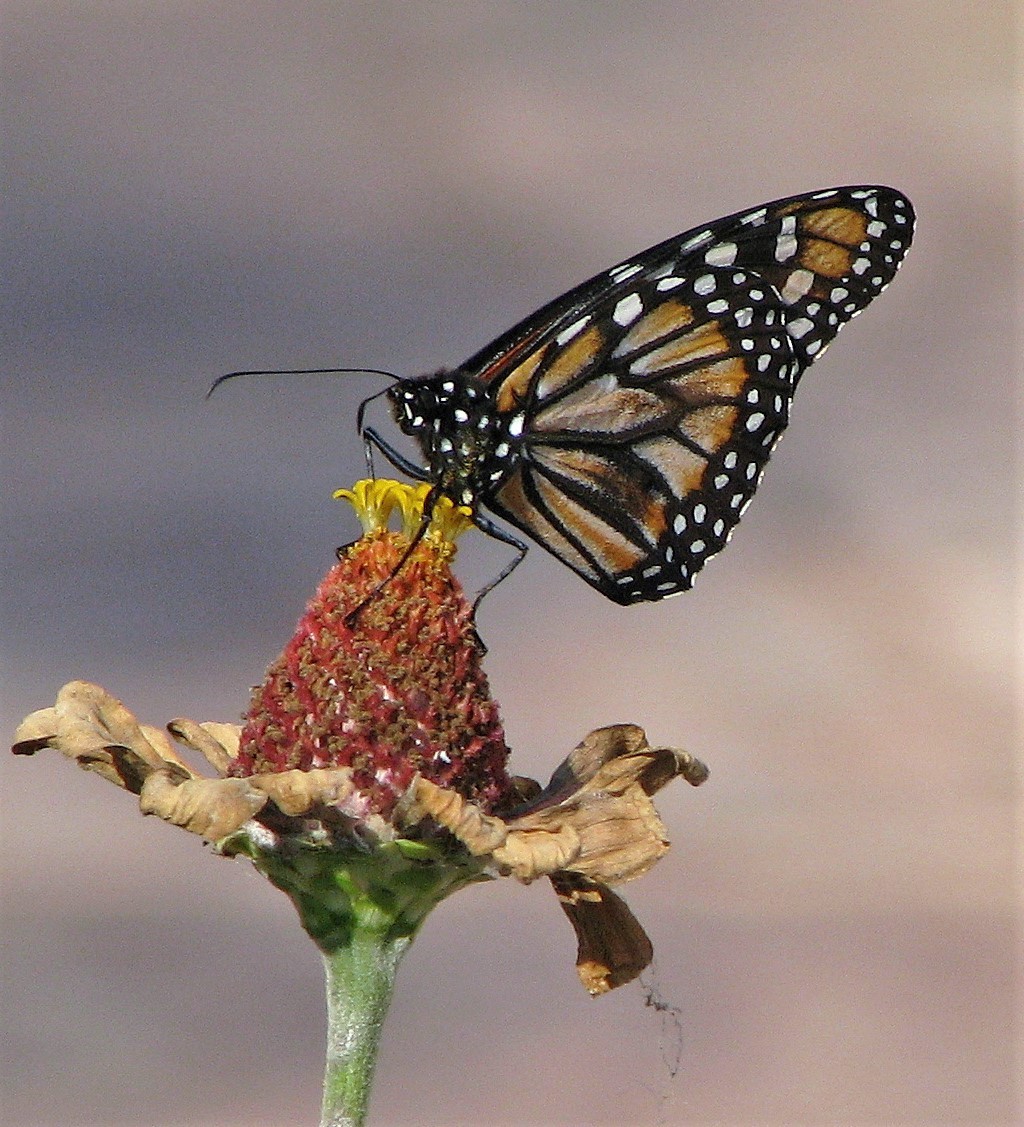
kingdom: Animalia
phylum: Arthropoda
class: Insecta
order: Lepidoptera
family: Nymphalidae
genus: Danaus
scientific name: Danaus erippus
